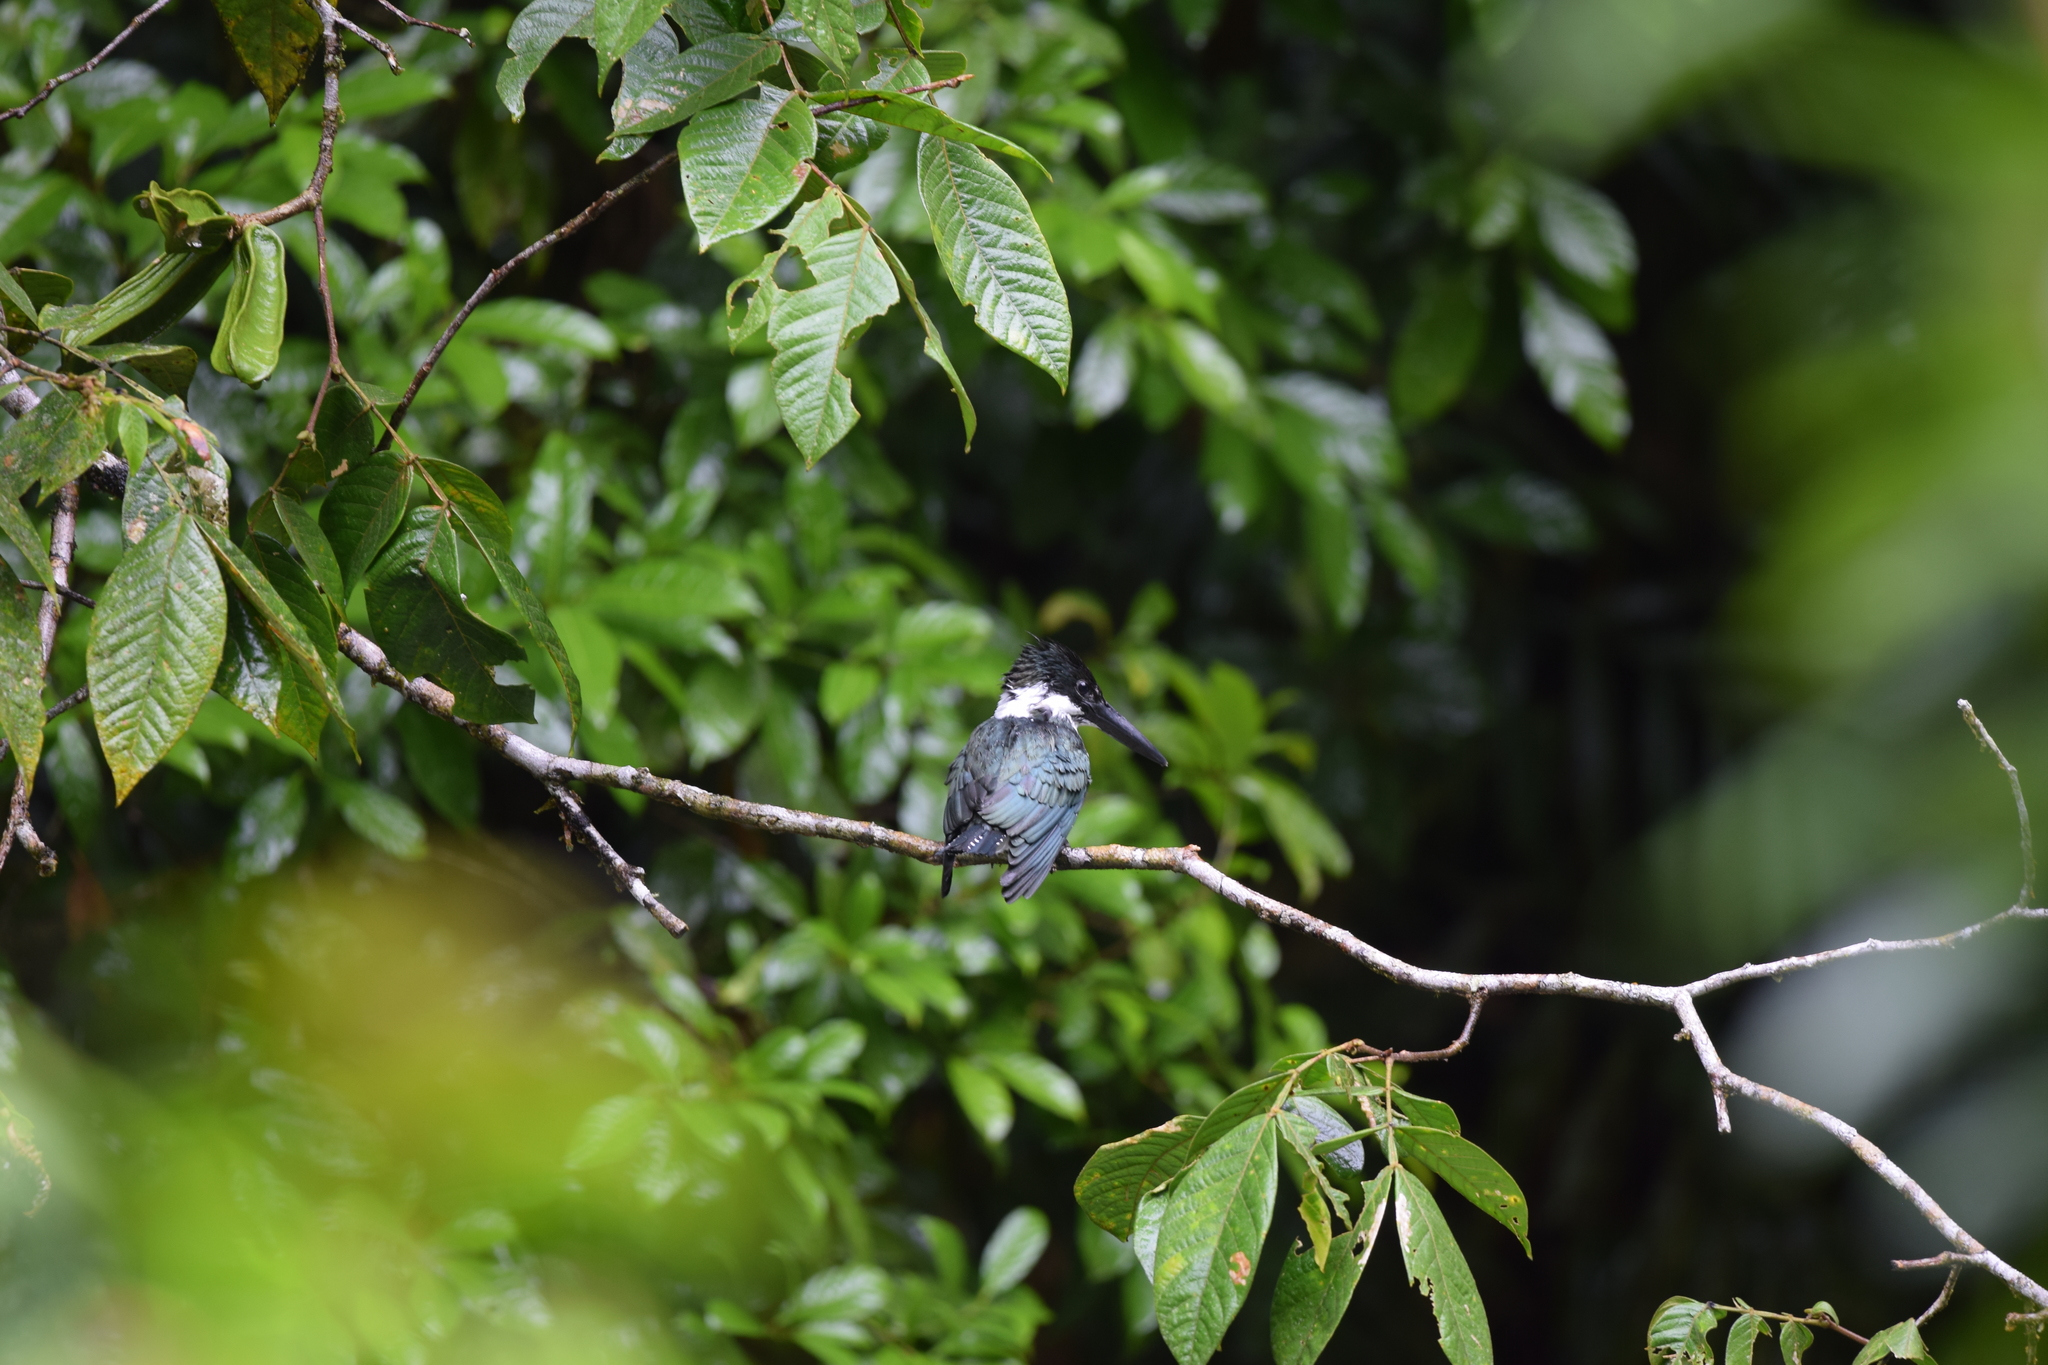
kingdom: Animalia
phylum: Chordata
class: Aves
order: Coraciiformes
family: Alcedinidae
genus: Chloroceryle
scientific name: Chloroceryle amazona
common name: Amazon kingfisher
